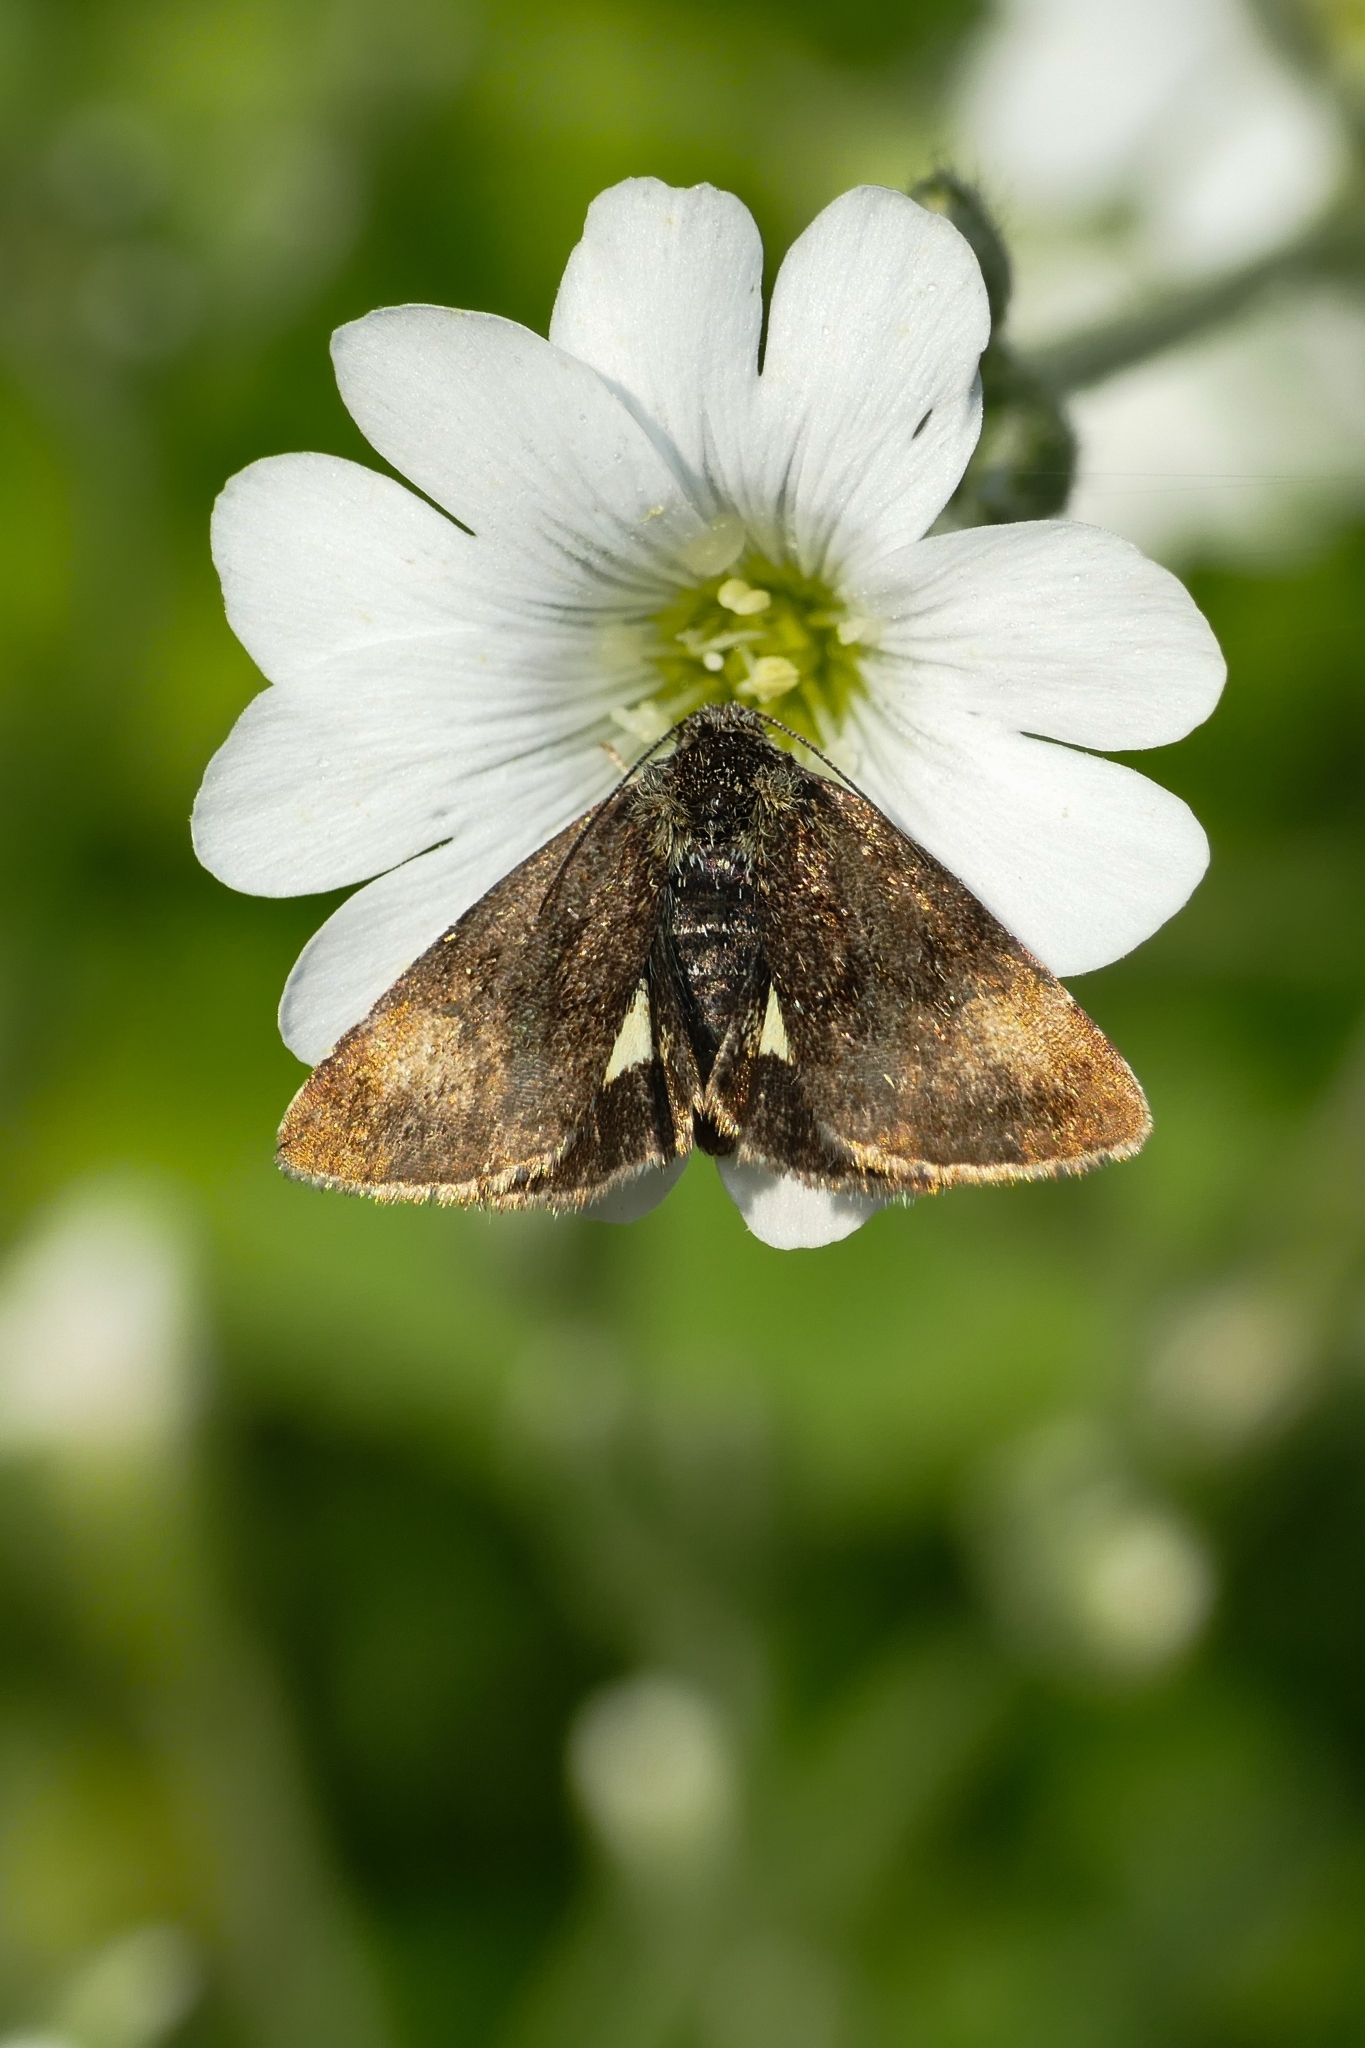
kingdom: Animalia
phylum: Arthropoda
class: Insecta
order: Lepidoptera
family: Noctuidae
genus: Panemeria
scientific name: Panemeria tenebrata
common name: Small yellow underwing
